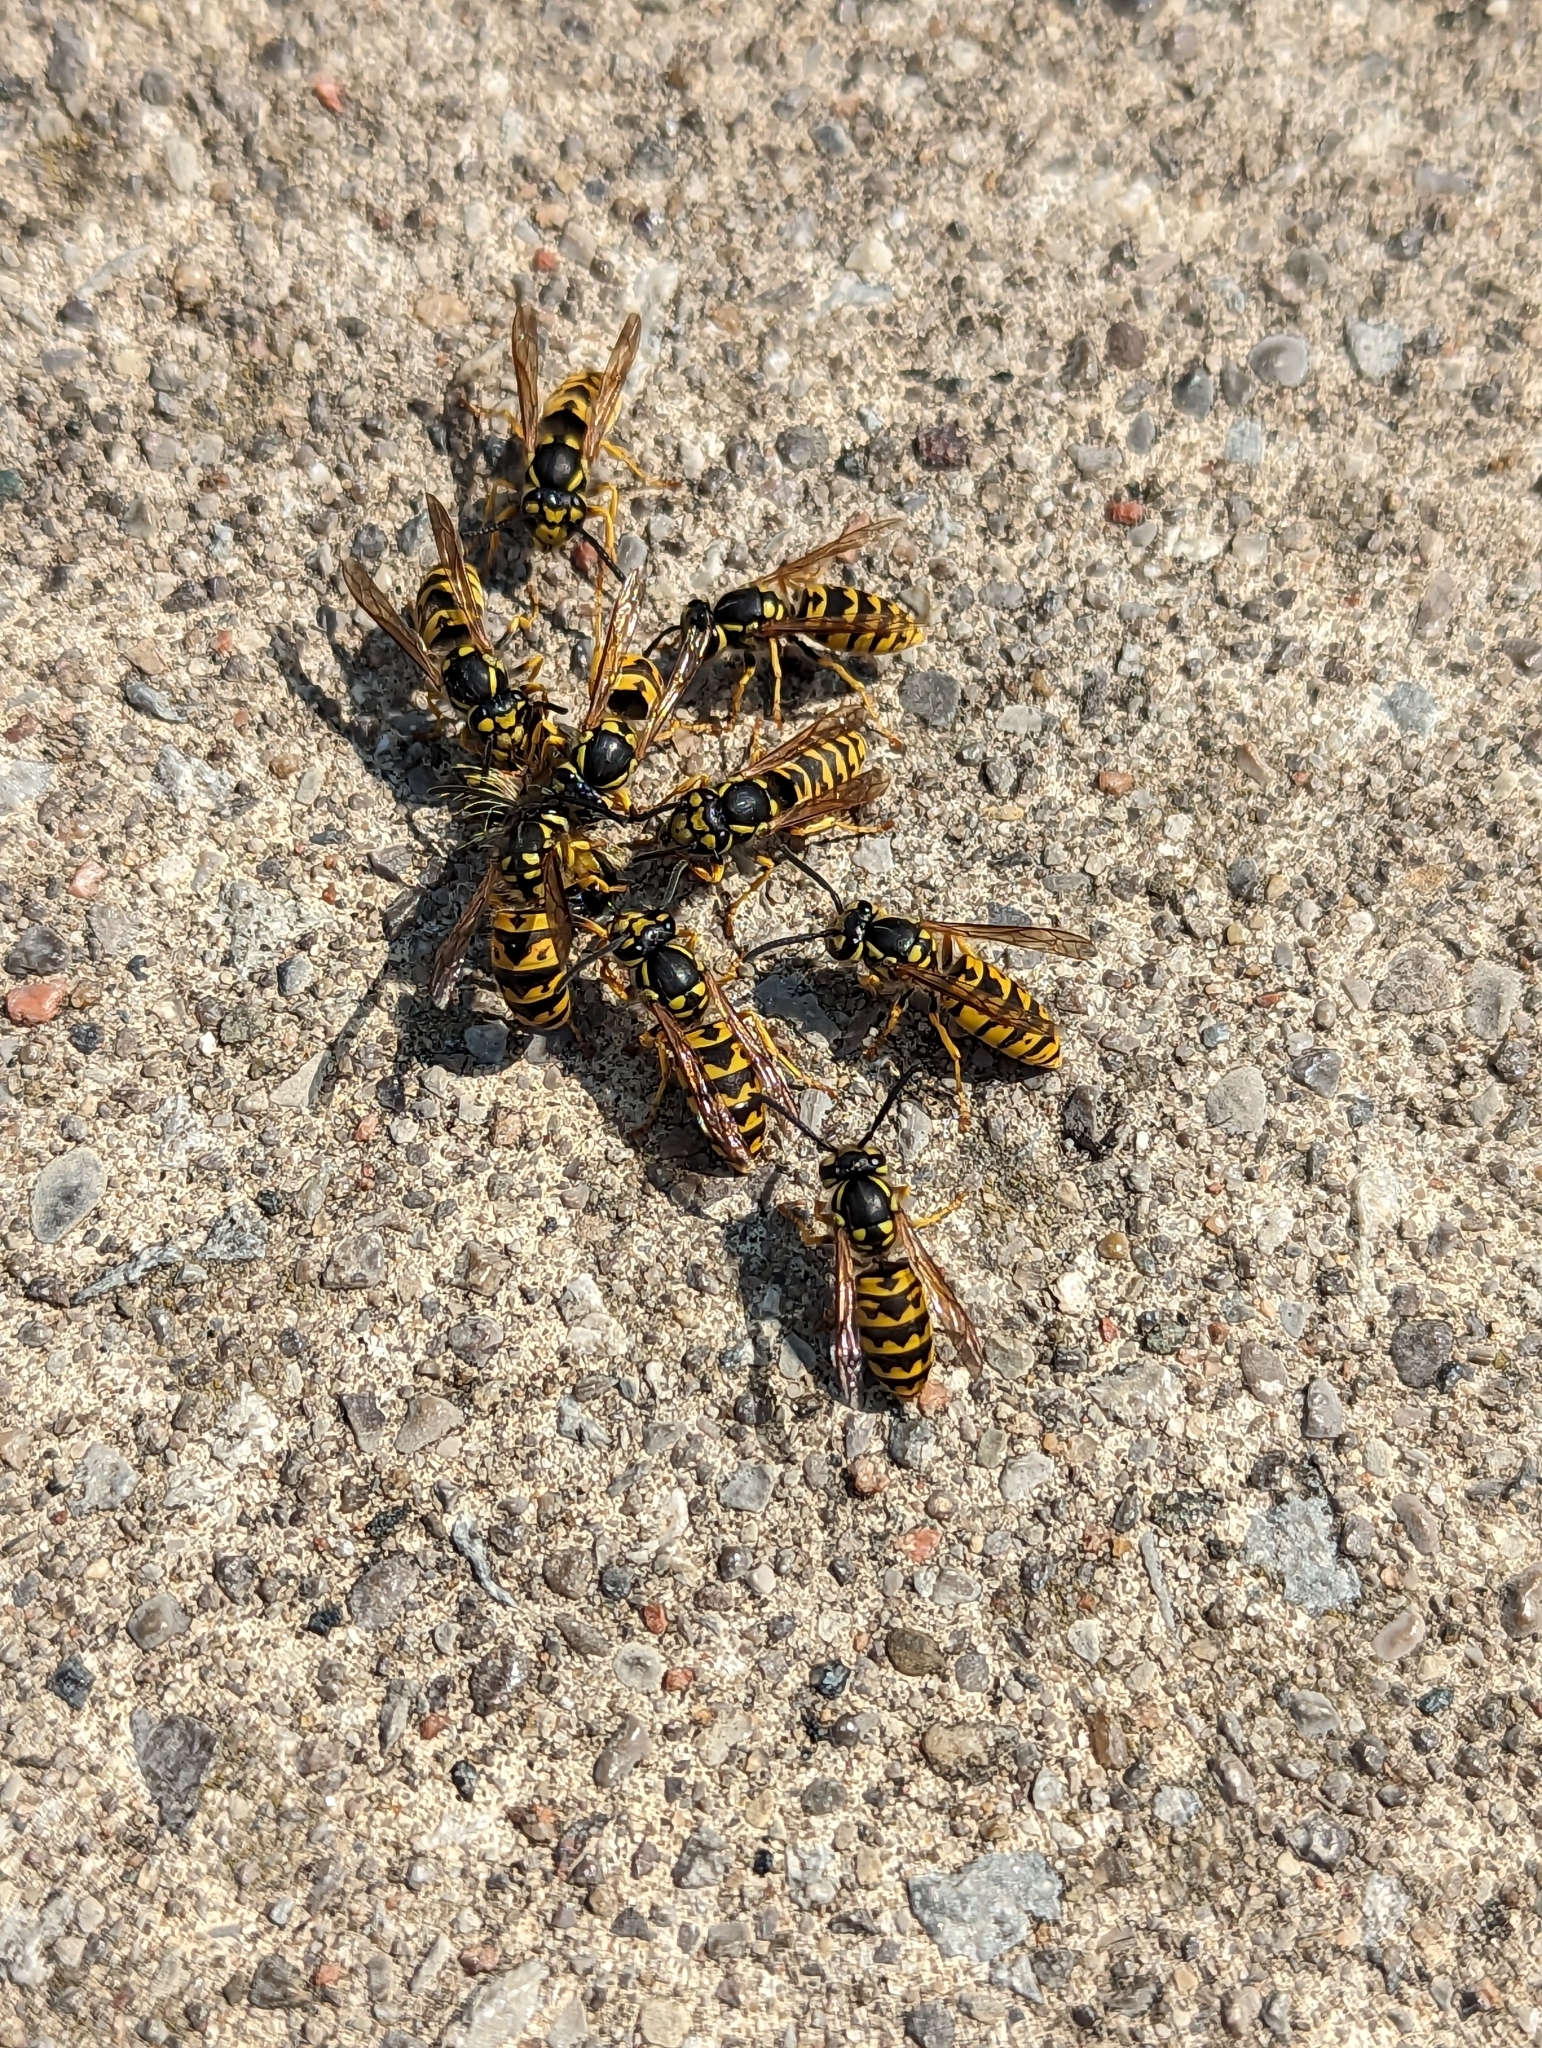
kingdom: Animalia
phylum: Arthropoda
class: Insecta
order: Hymenoptera
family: Vespidae
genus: Vespula
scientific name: Vespula germanica
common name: German wasp
